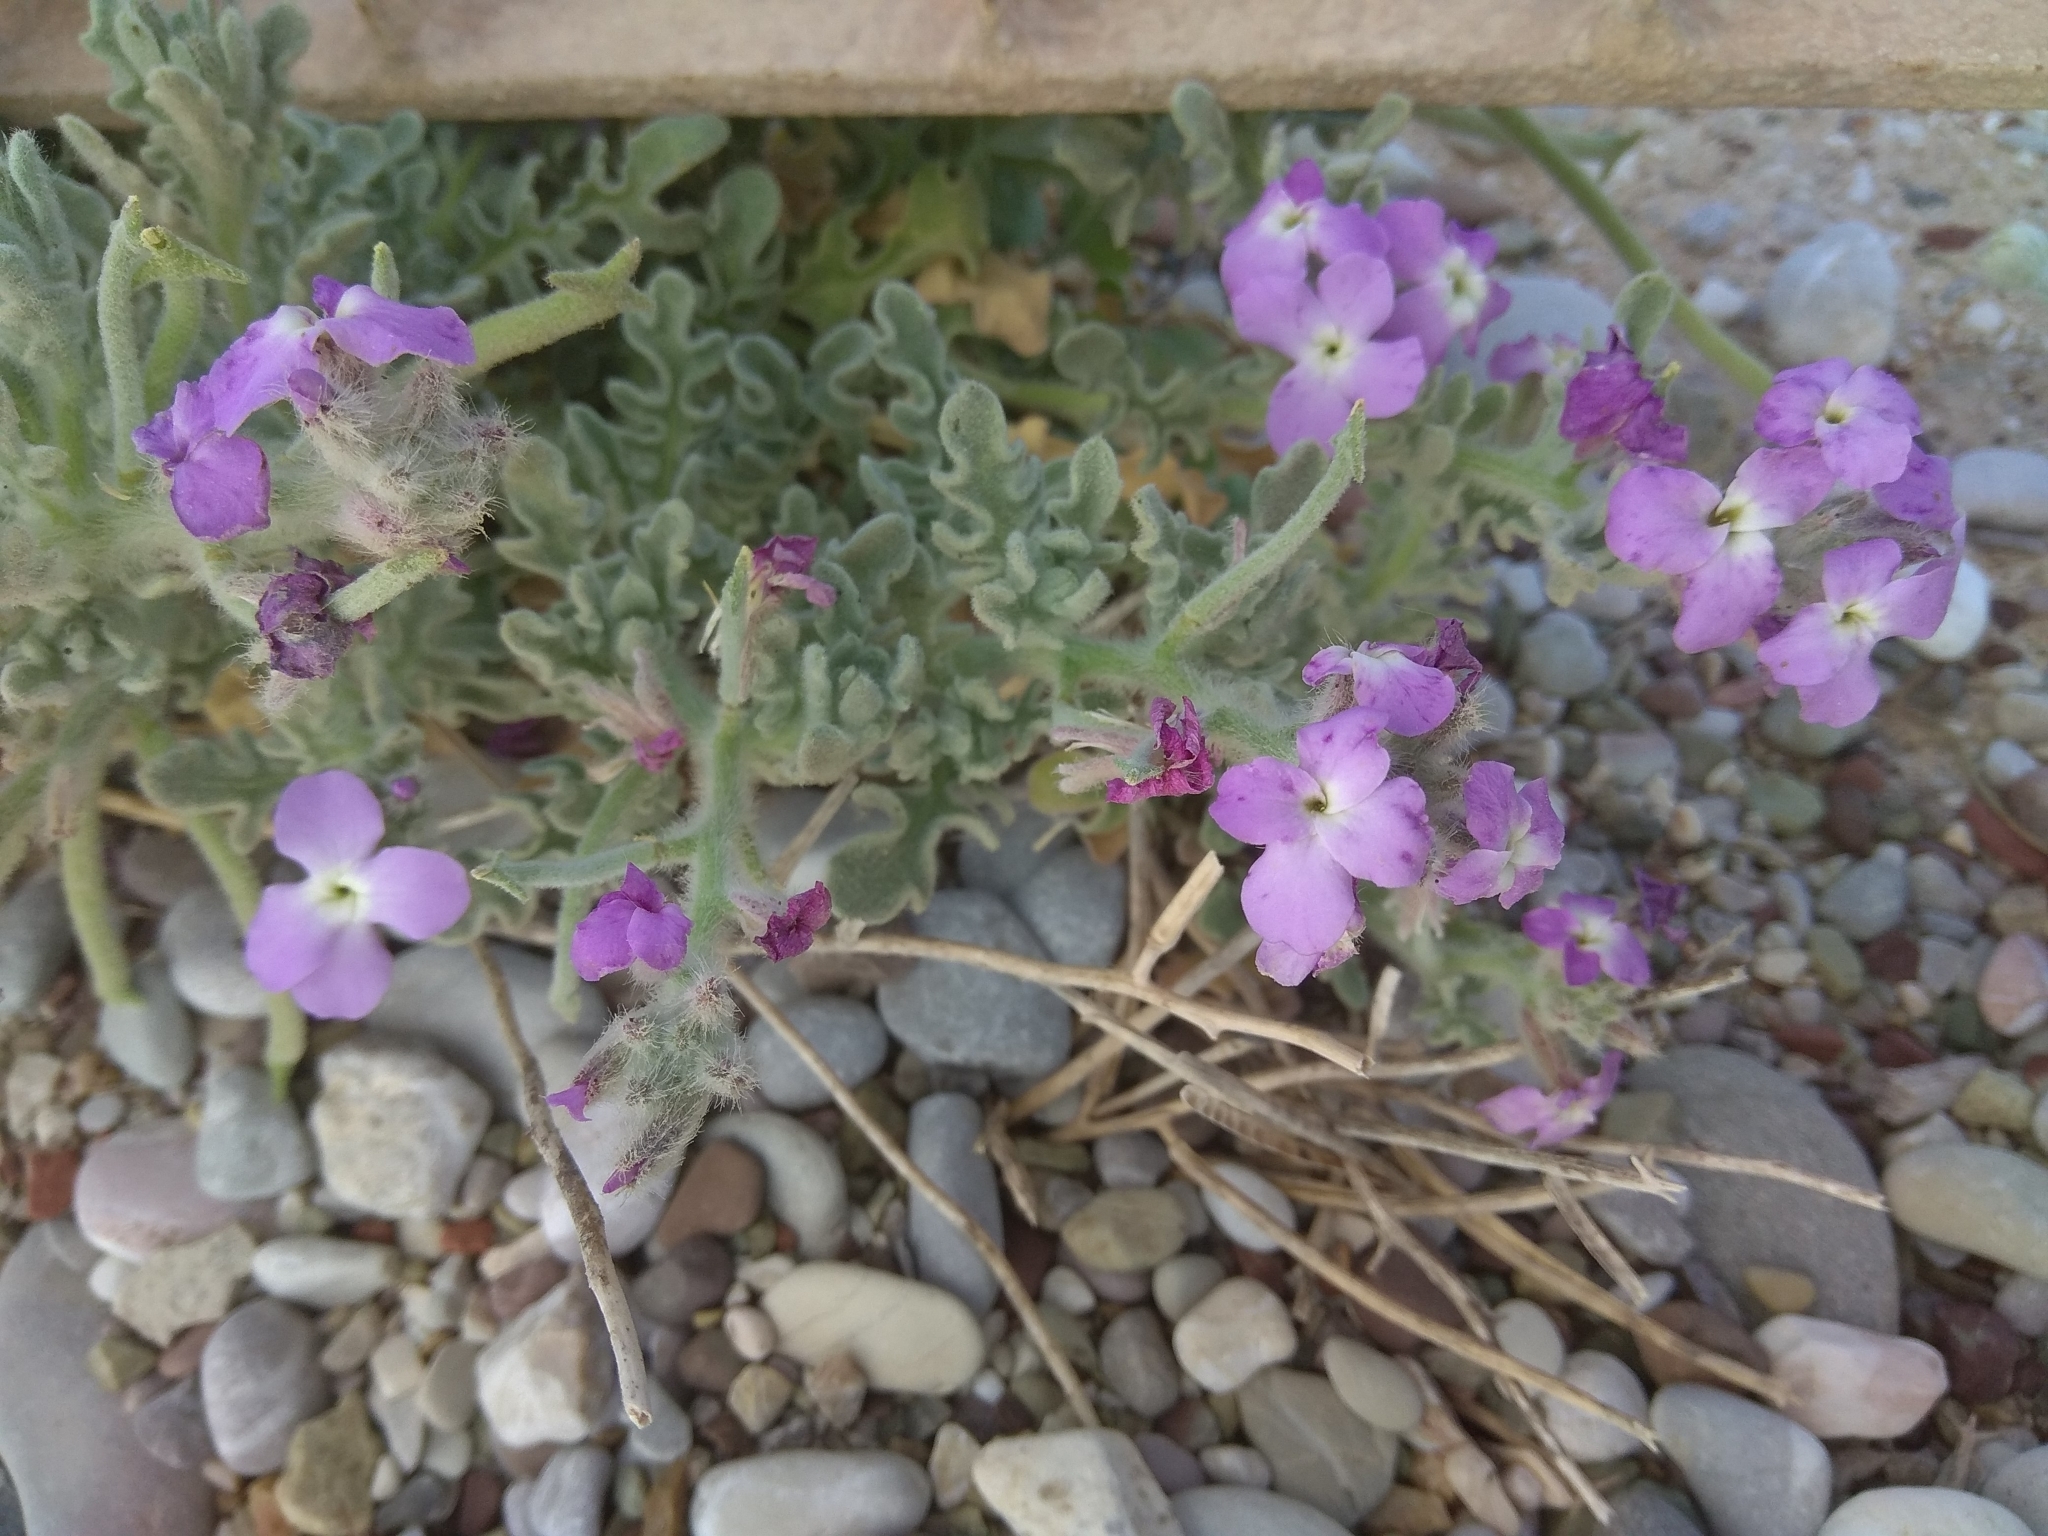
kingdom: Plantae
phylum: Tracheophyta
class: Magnoliopsida
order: Brassicales
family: Brassicaceae
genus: Matthiola
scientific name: Matthiola sinuata
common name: Sea stock
